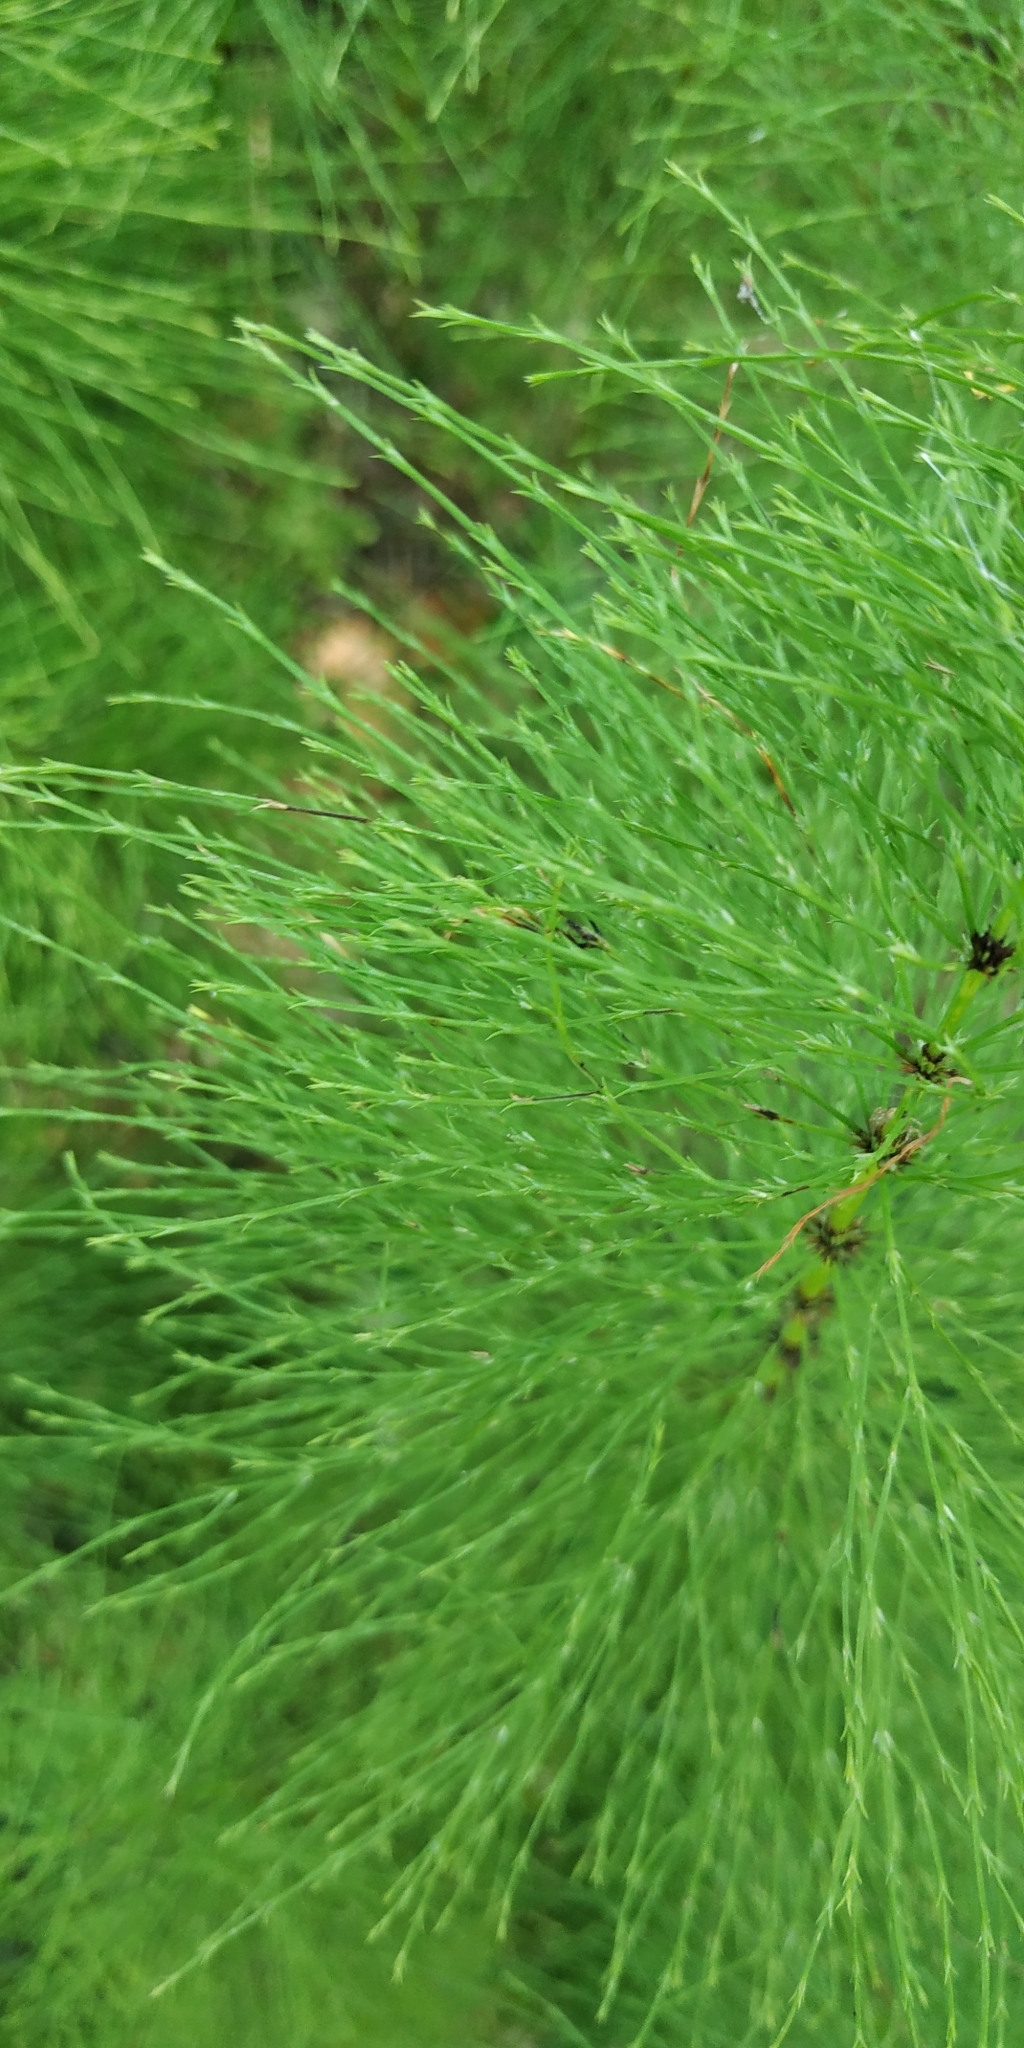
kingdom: Plantae
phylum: Tracheophyta
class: Polypodiopsida
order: Equisetales
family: Equisetaceae
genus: Equisetum
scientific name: Equisetum sylvaticum
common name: Wood horsetail
